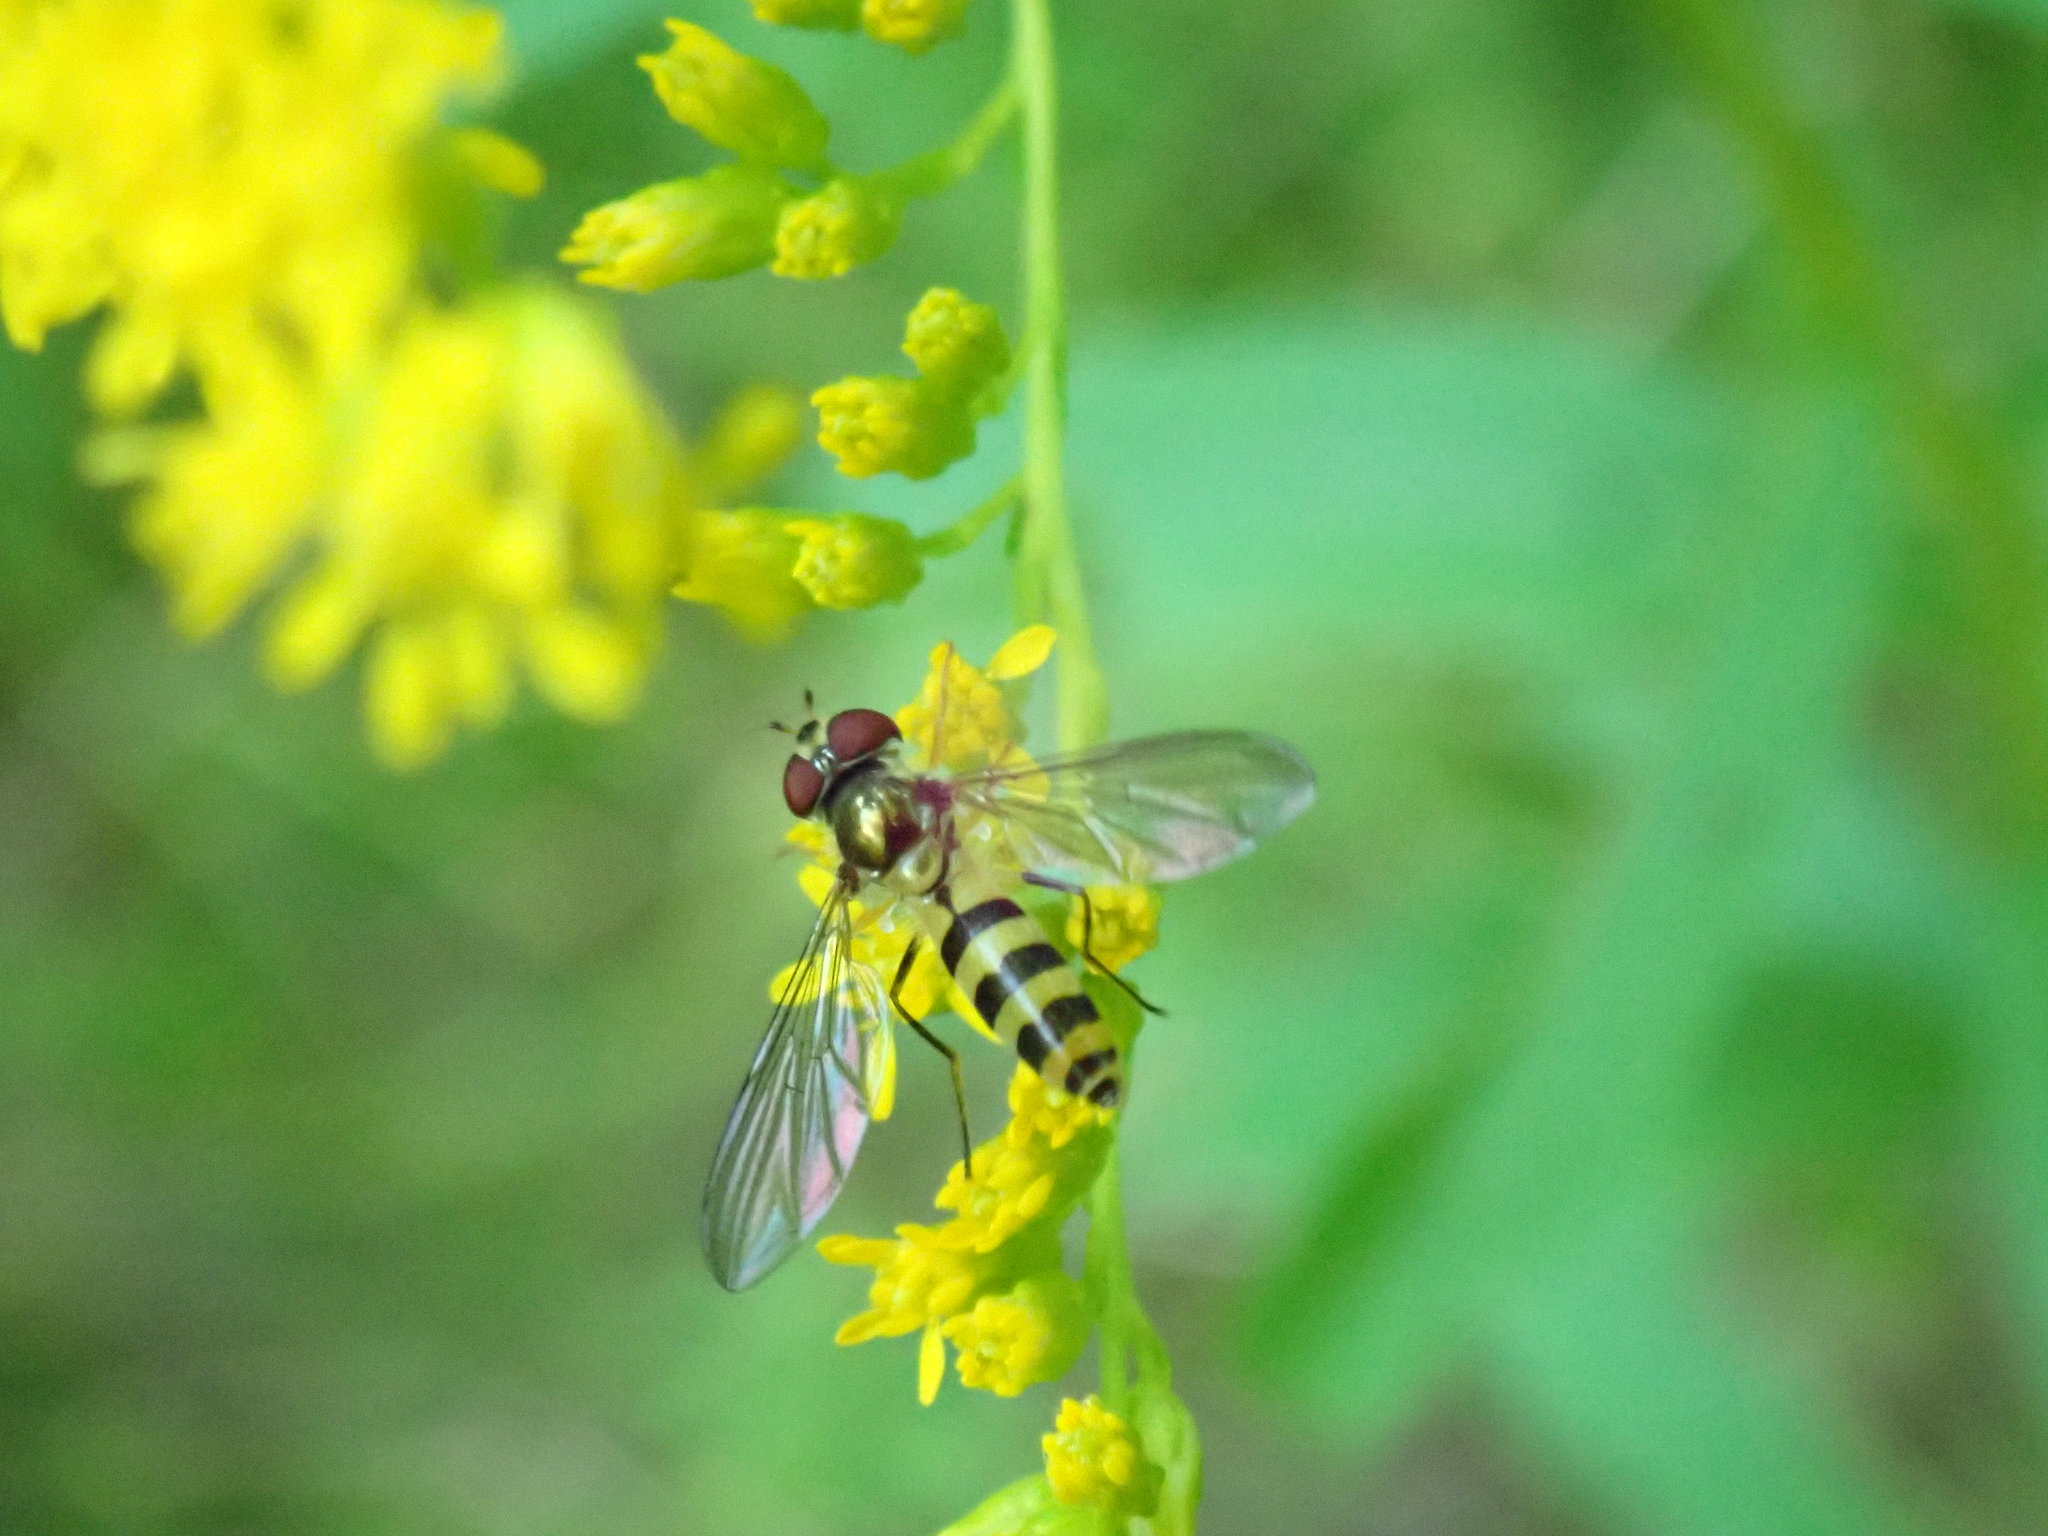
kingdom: Animalia
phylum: Arthropoda
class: Insecta
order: Diptera
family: Syrphidae
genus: Meliscaeva
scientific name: Meliscaeva cinctella
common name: American thintail fly
